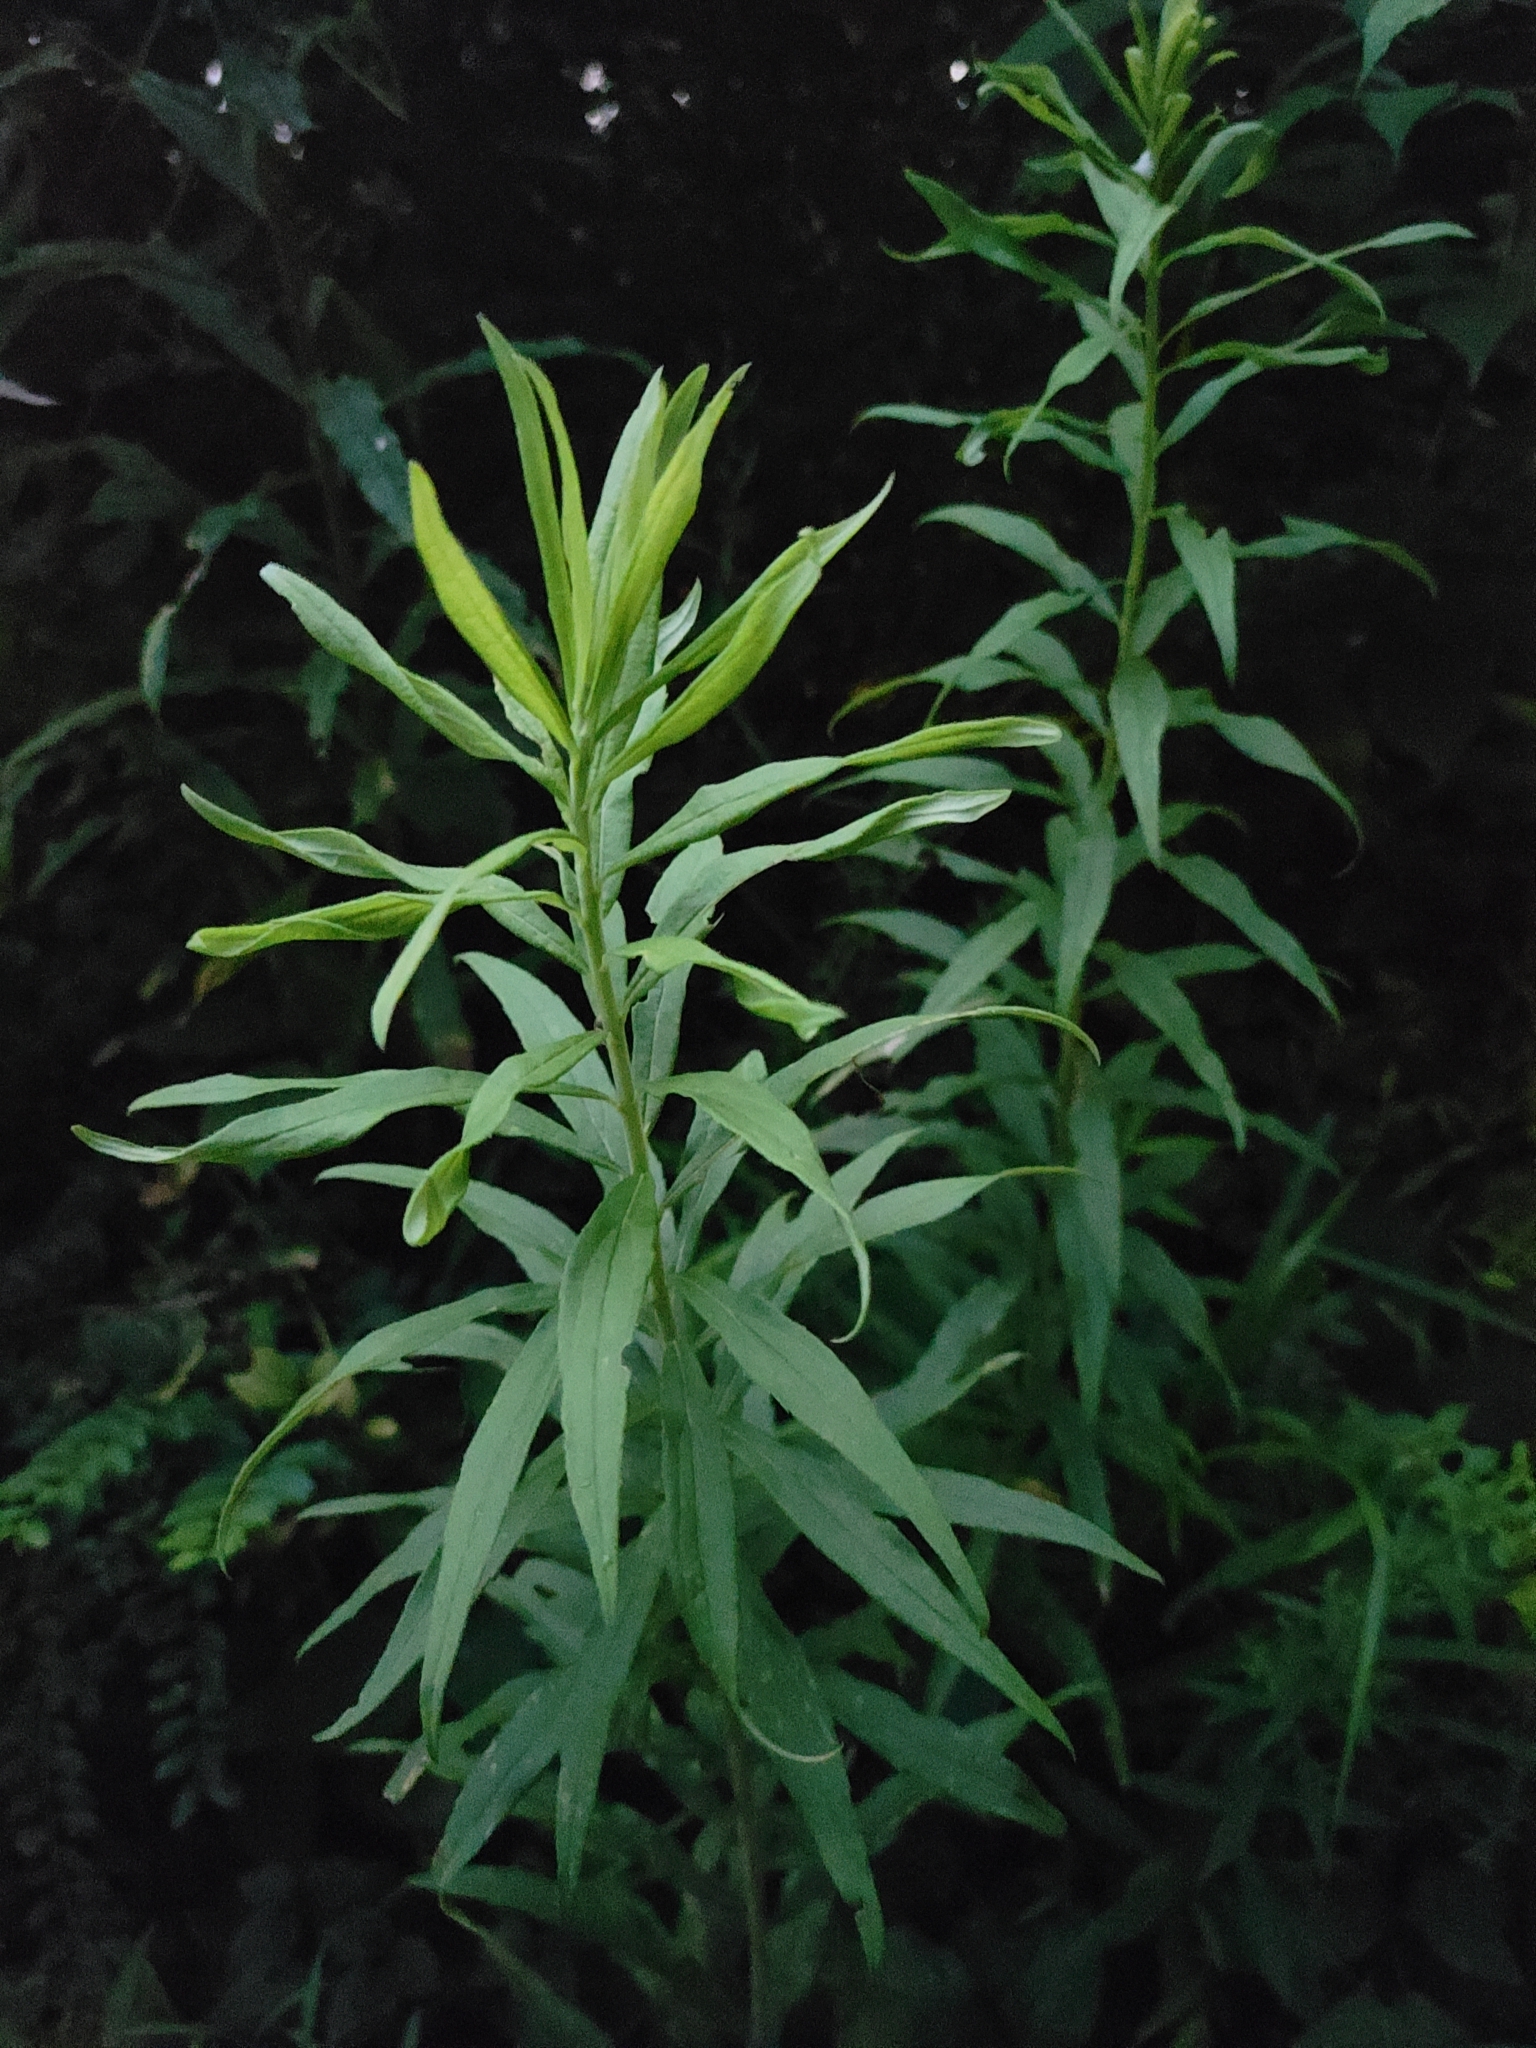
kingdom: Plantae
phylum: Tracheophyta
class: Magnoliopsida
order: Asterales
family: Asteraceae
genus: Solidago
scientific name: Solidago altissima
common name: Late goldenrod
